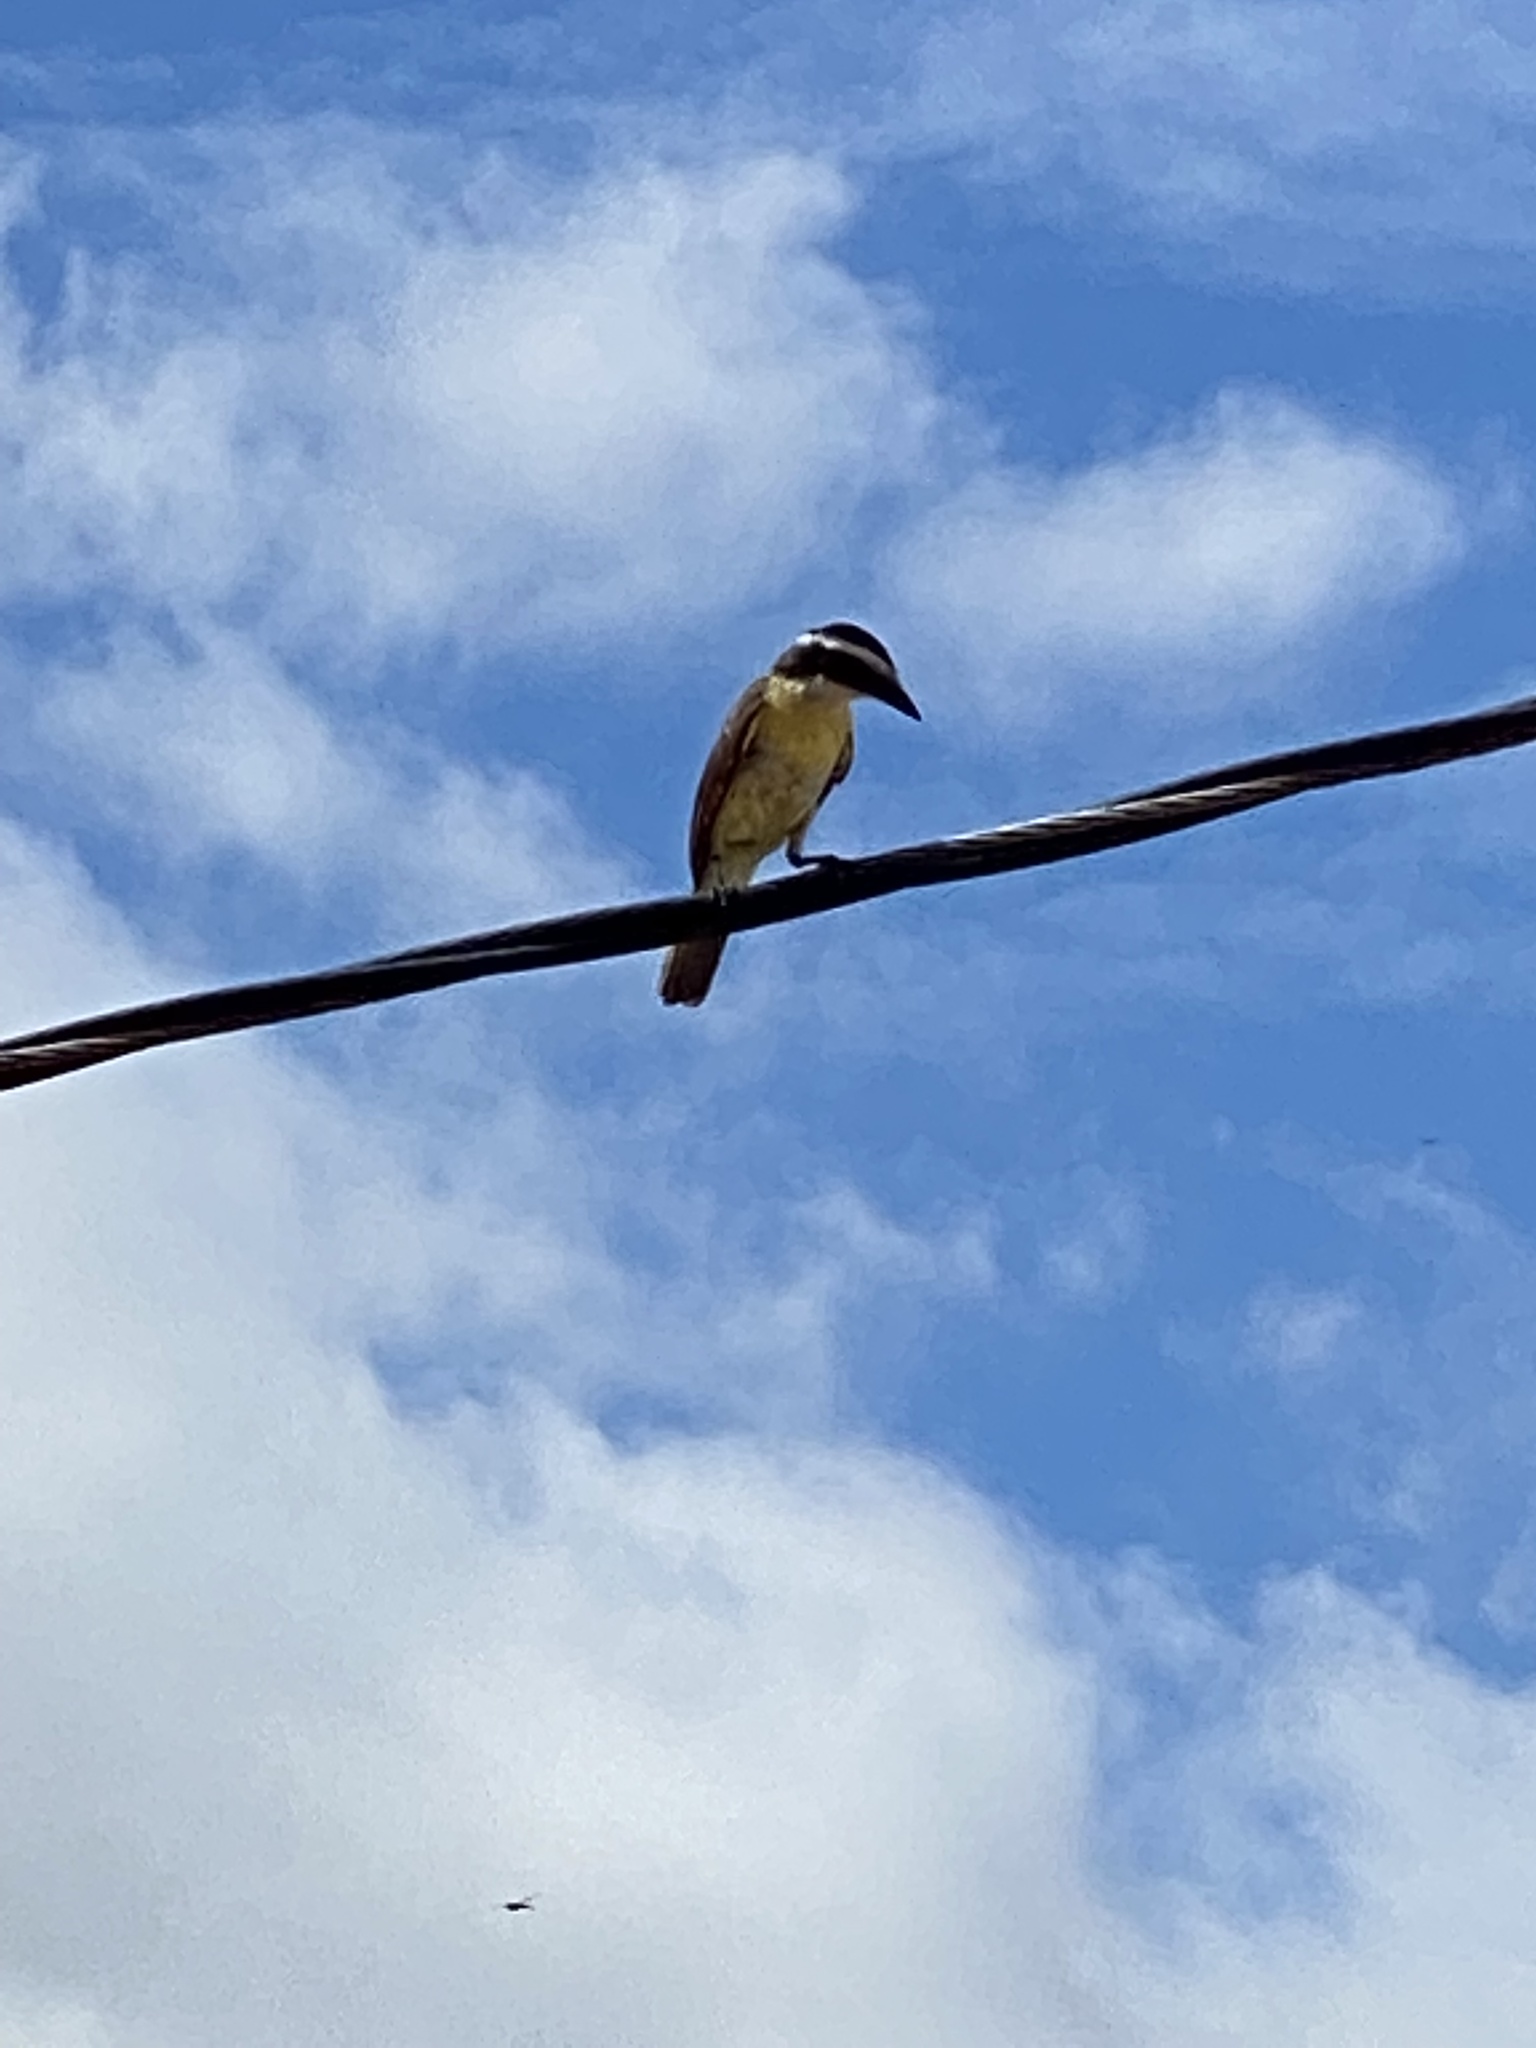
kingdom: Animalia
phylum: Chordata
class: Aves
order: Passeriformes
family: Tyrannidae
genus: Pitangus
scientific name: Pitangus sulphuratus
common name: Great kiskadee
